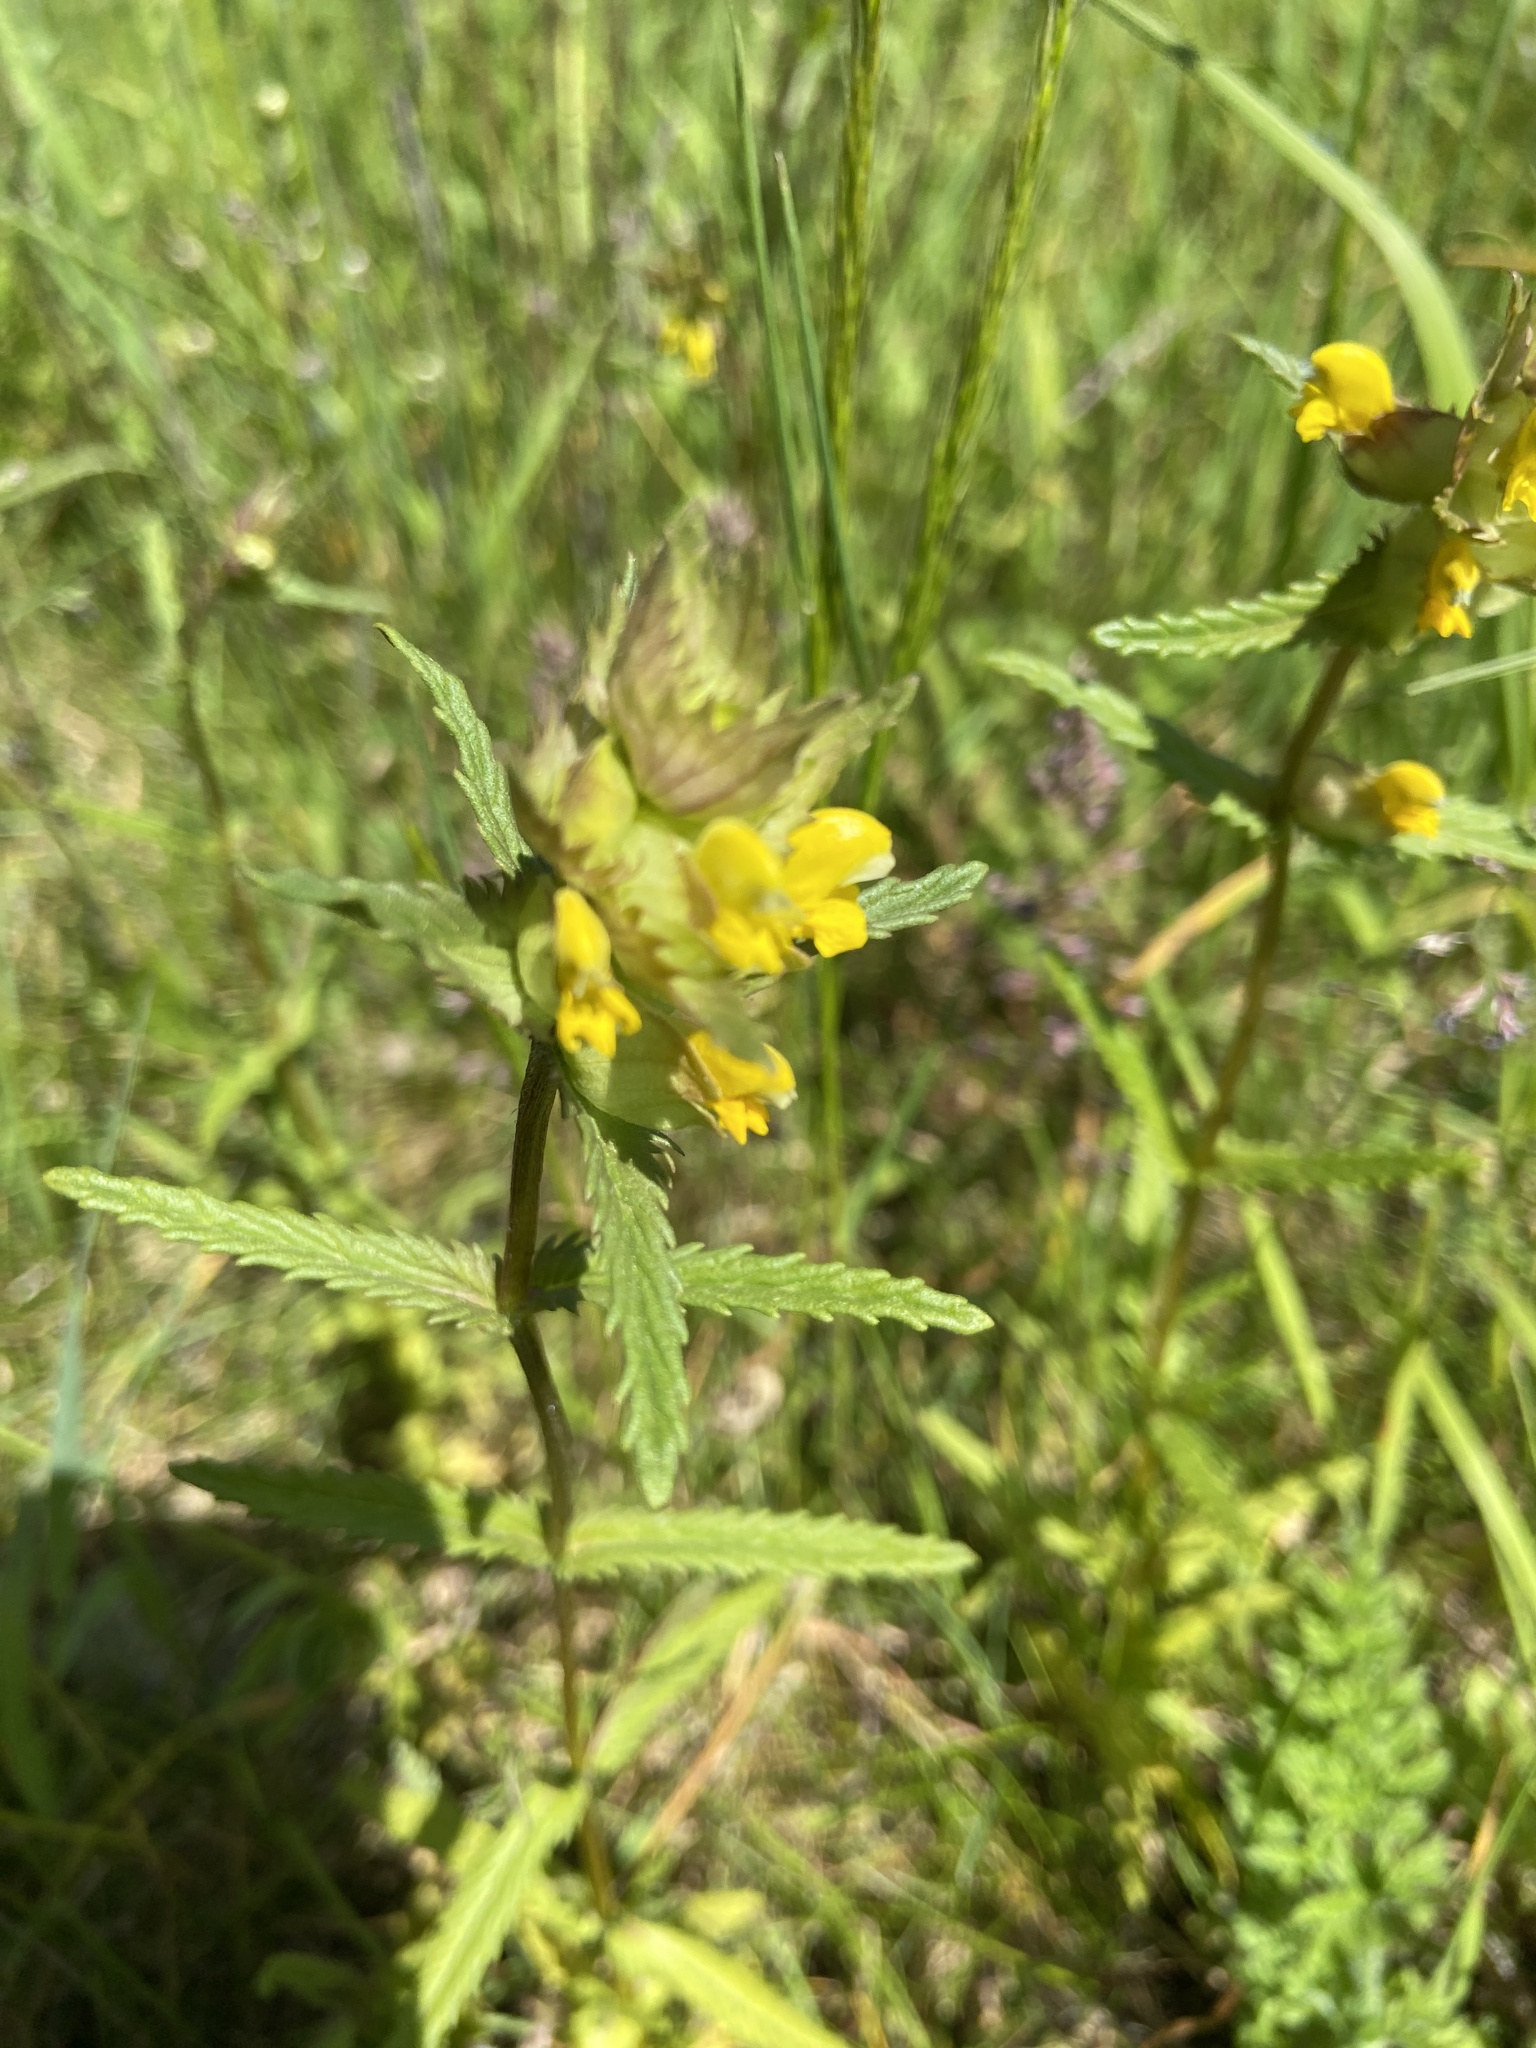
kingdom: Plantae
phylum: Tracheophyta
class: Magnoliopsida
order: Lamiales
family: Orobanchaceae
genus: Rhinanthus
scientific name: Rhinanthus minor
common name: Yellow-rattle
